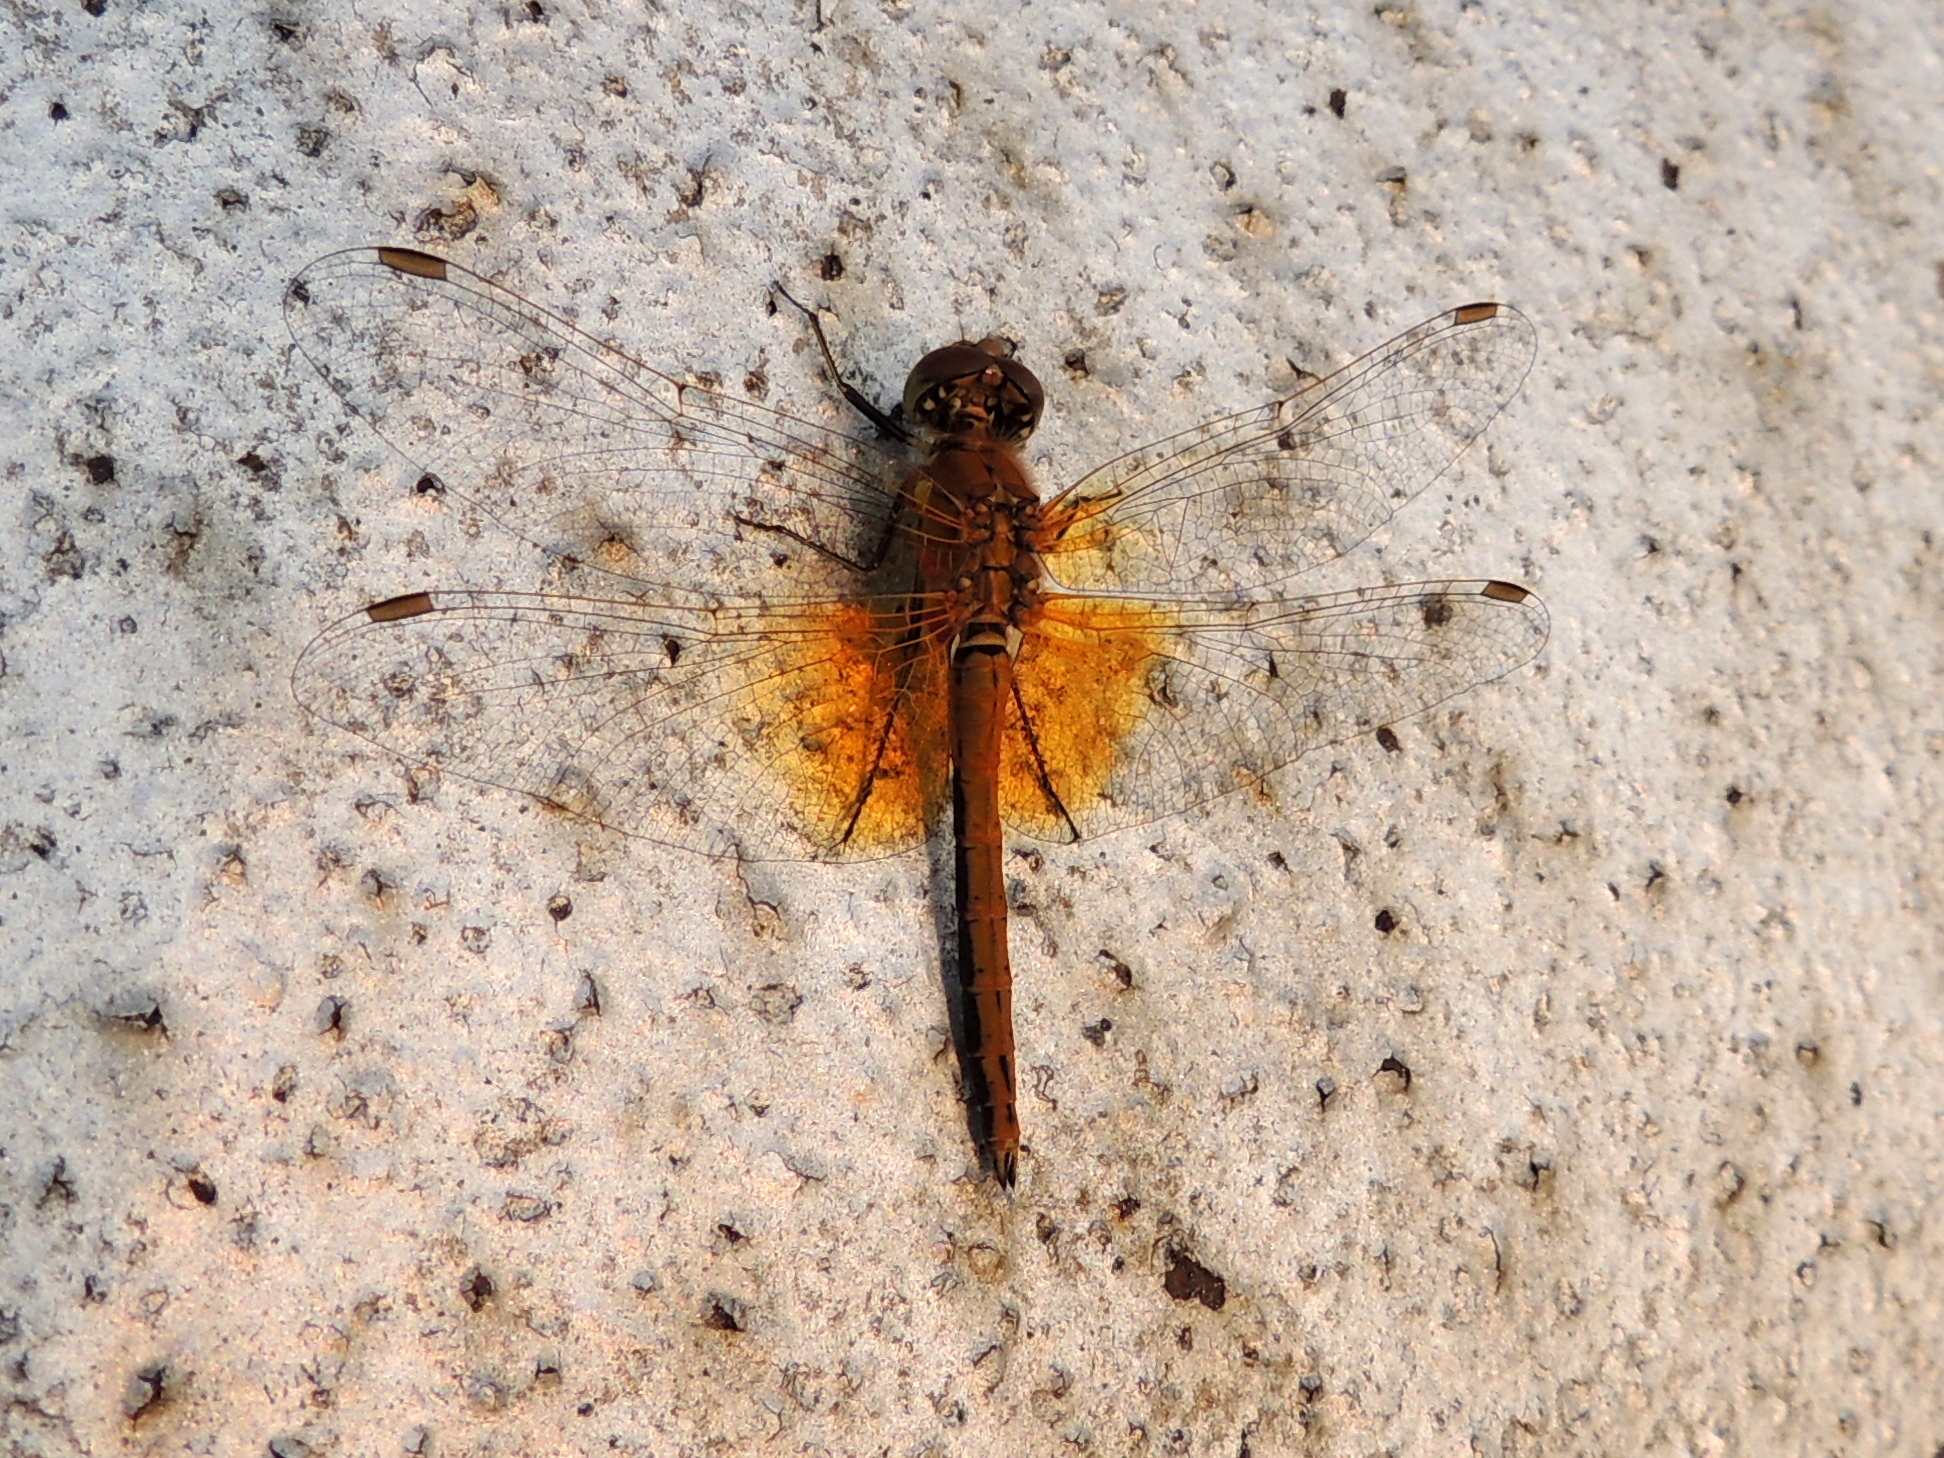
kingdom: Animalia
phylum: Arthropoda
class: Insecta
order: Odonata
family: Libellulidae
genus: Sympetrum
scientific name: Sympetrum flaveolum
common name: Yellow-winged darter
